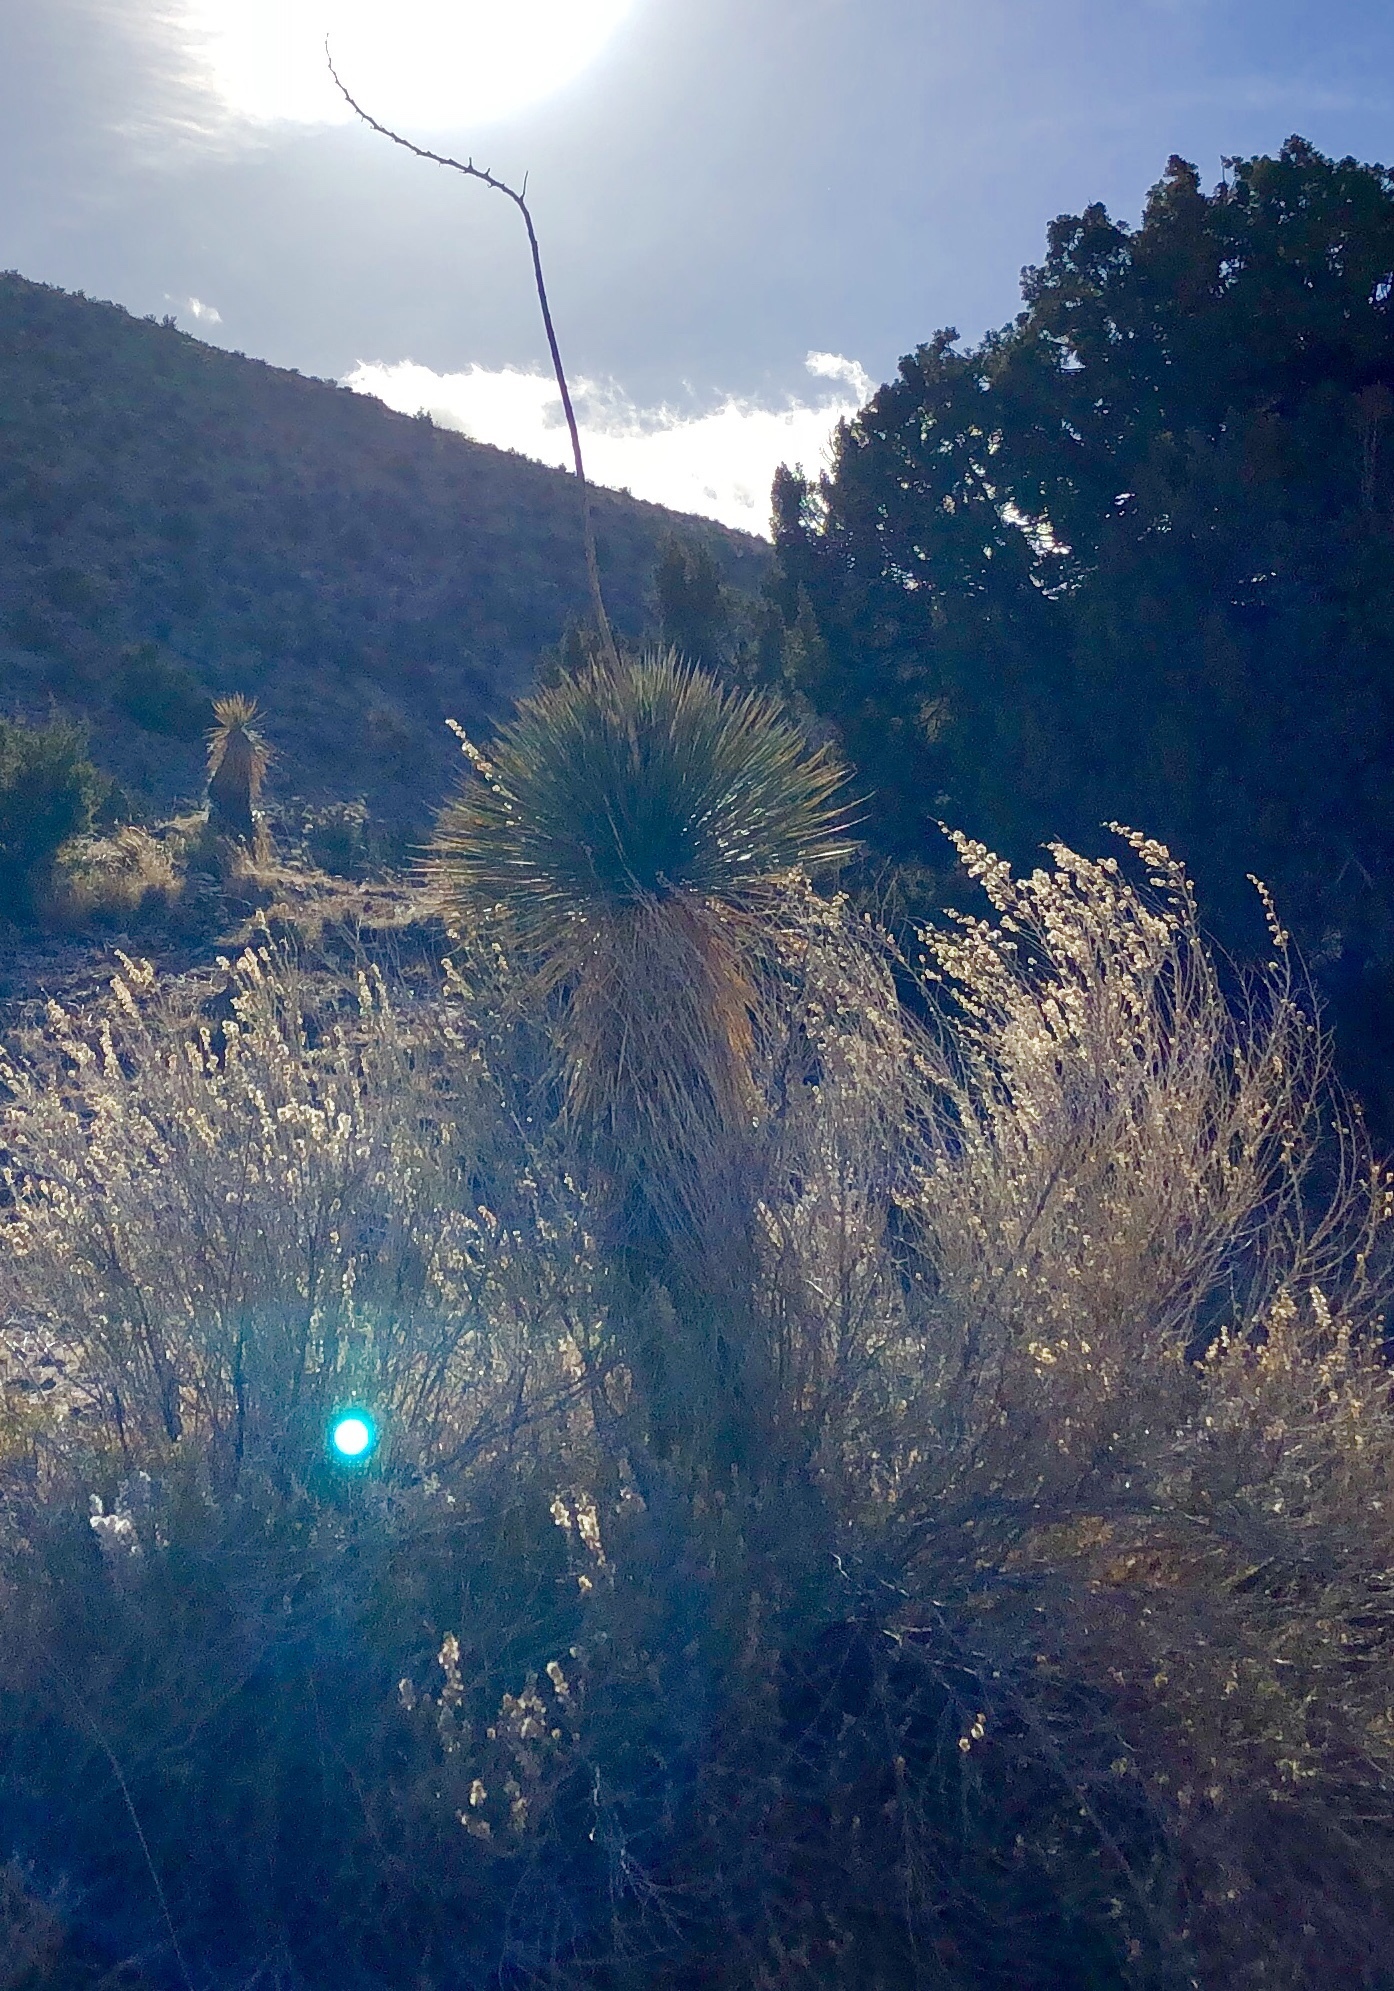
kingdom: Plantae
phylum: Tracheophyta
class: Liliopsida
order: Asparagales
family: Asparagaceae
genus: Yucca
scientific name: Yucca elata
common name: Palmella
